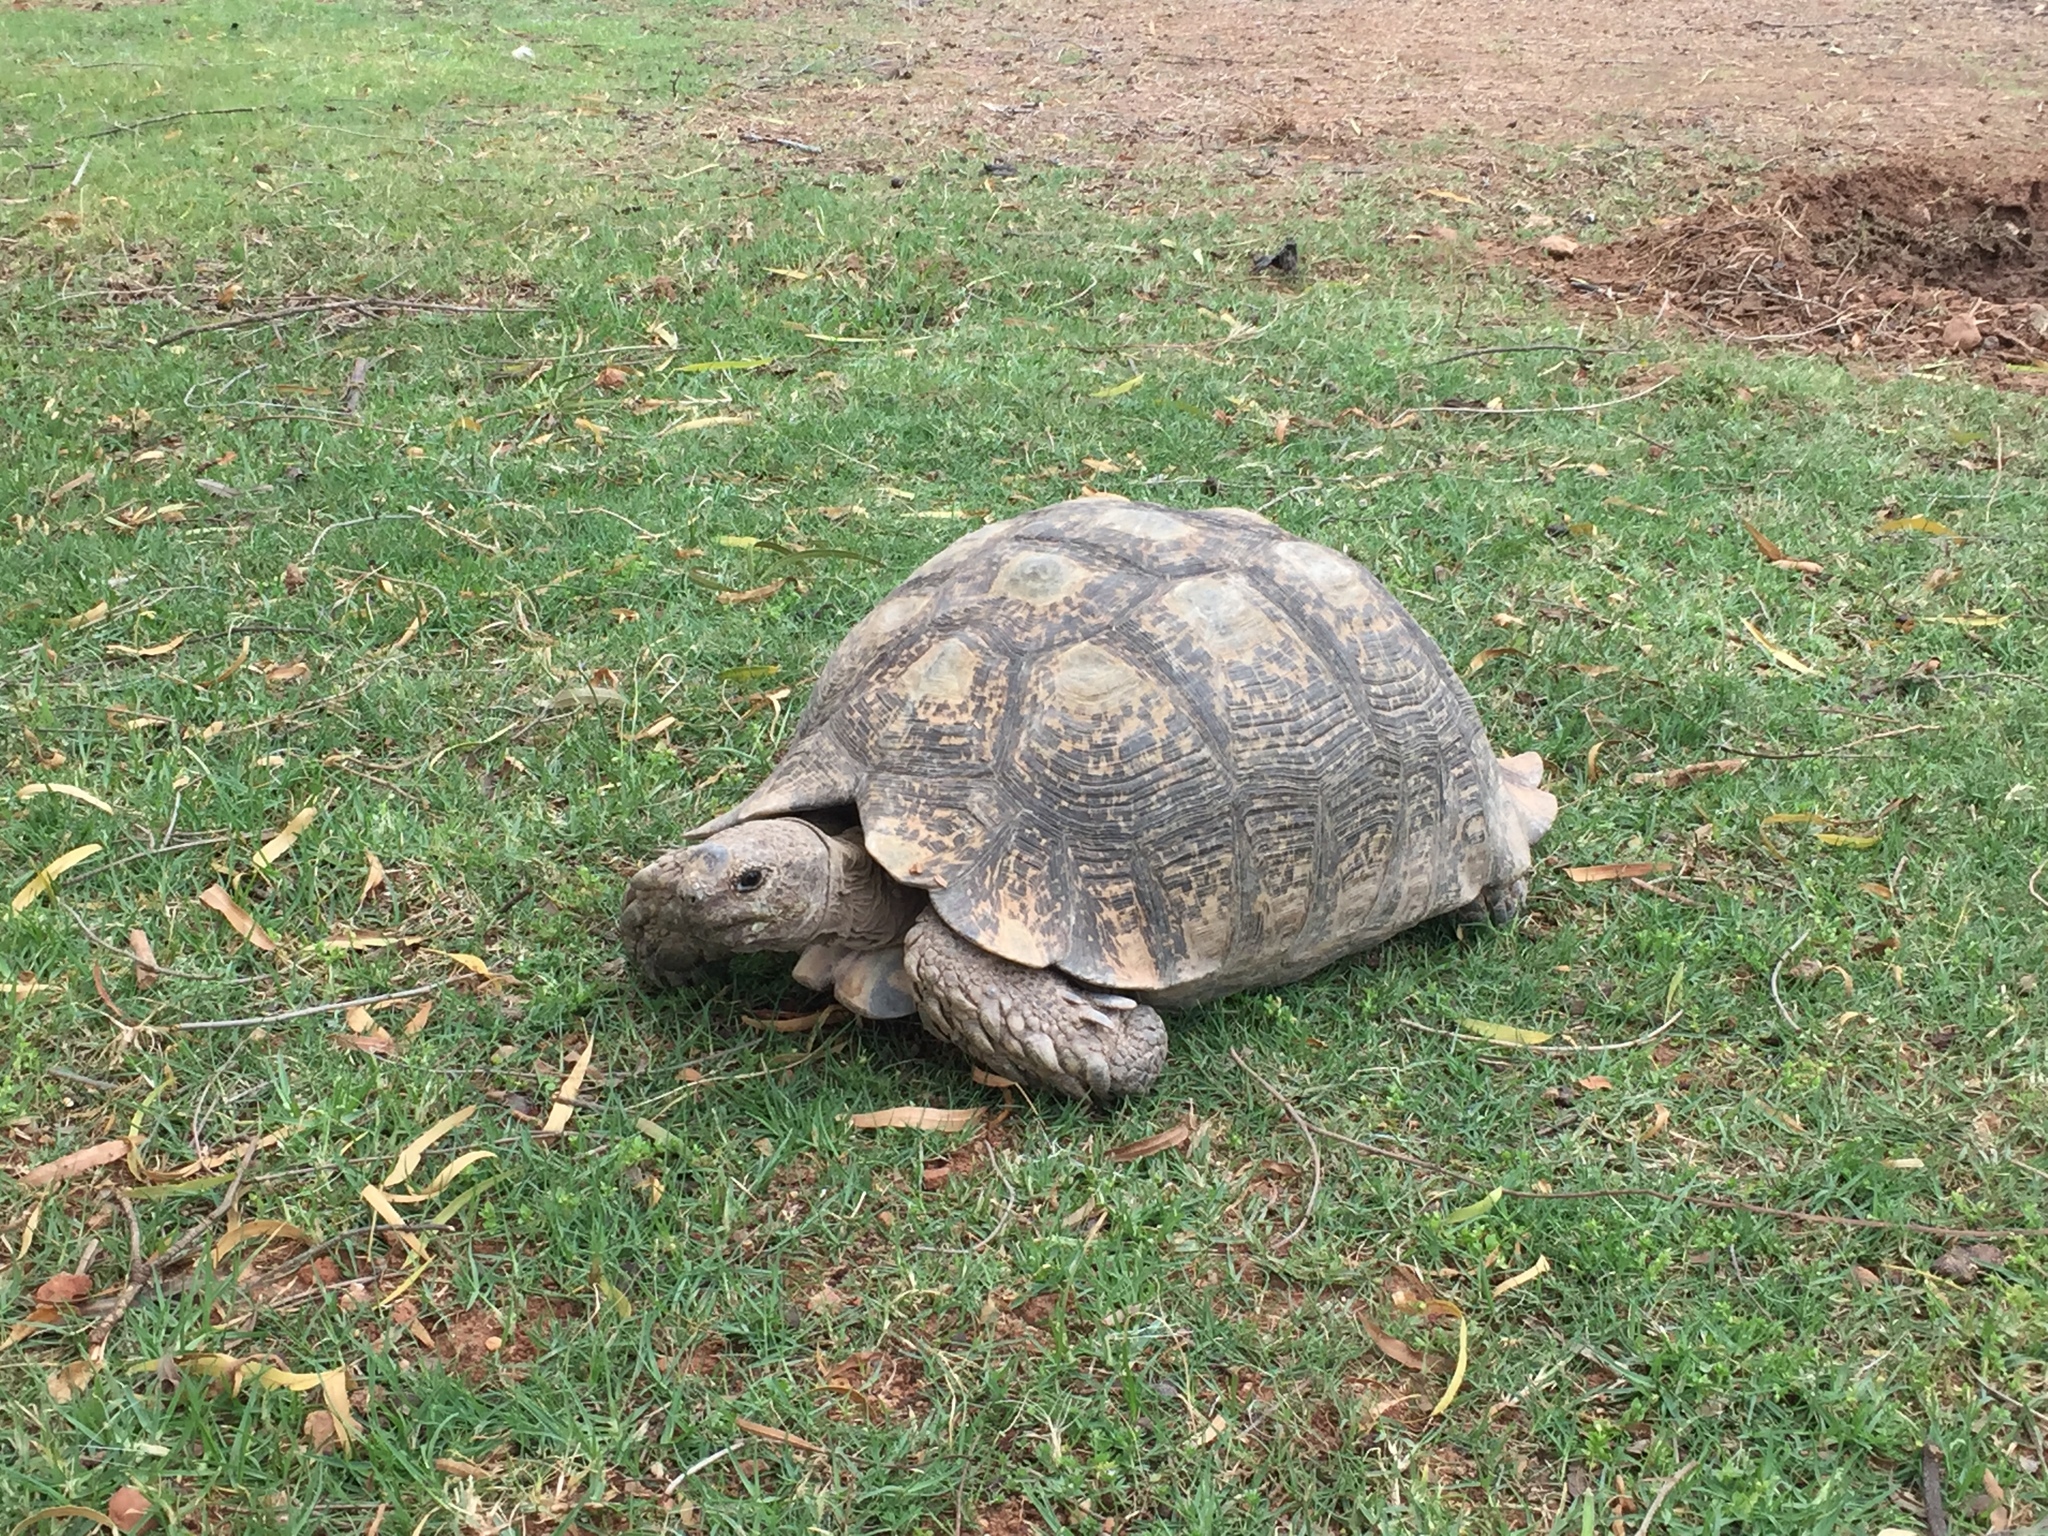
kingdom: Animalia
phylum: Chordata
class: Testudines
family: Testudinidae
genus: Stigmochelys
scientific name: Stigmochelys pardalis
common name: Leopard tortoise
